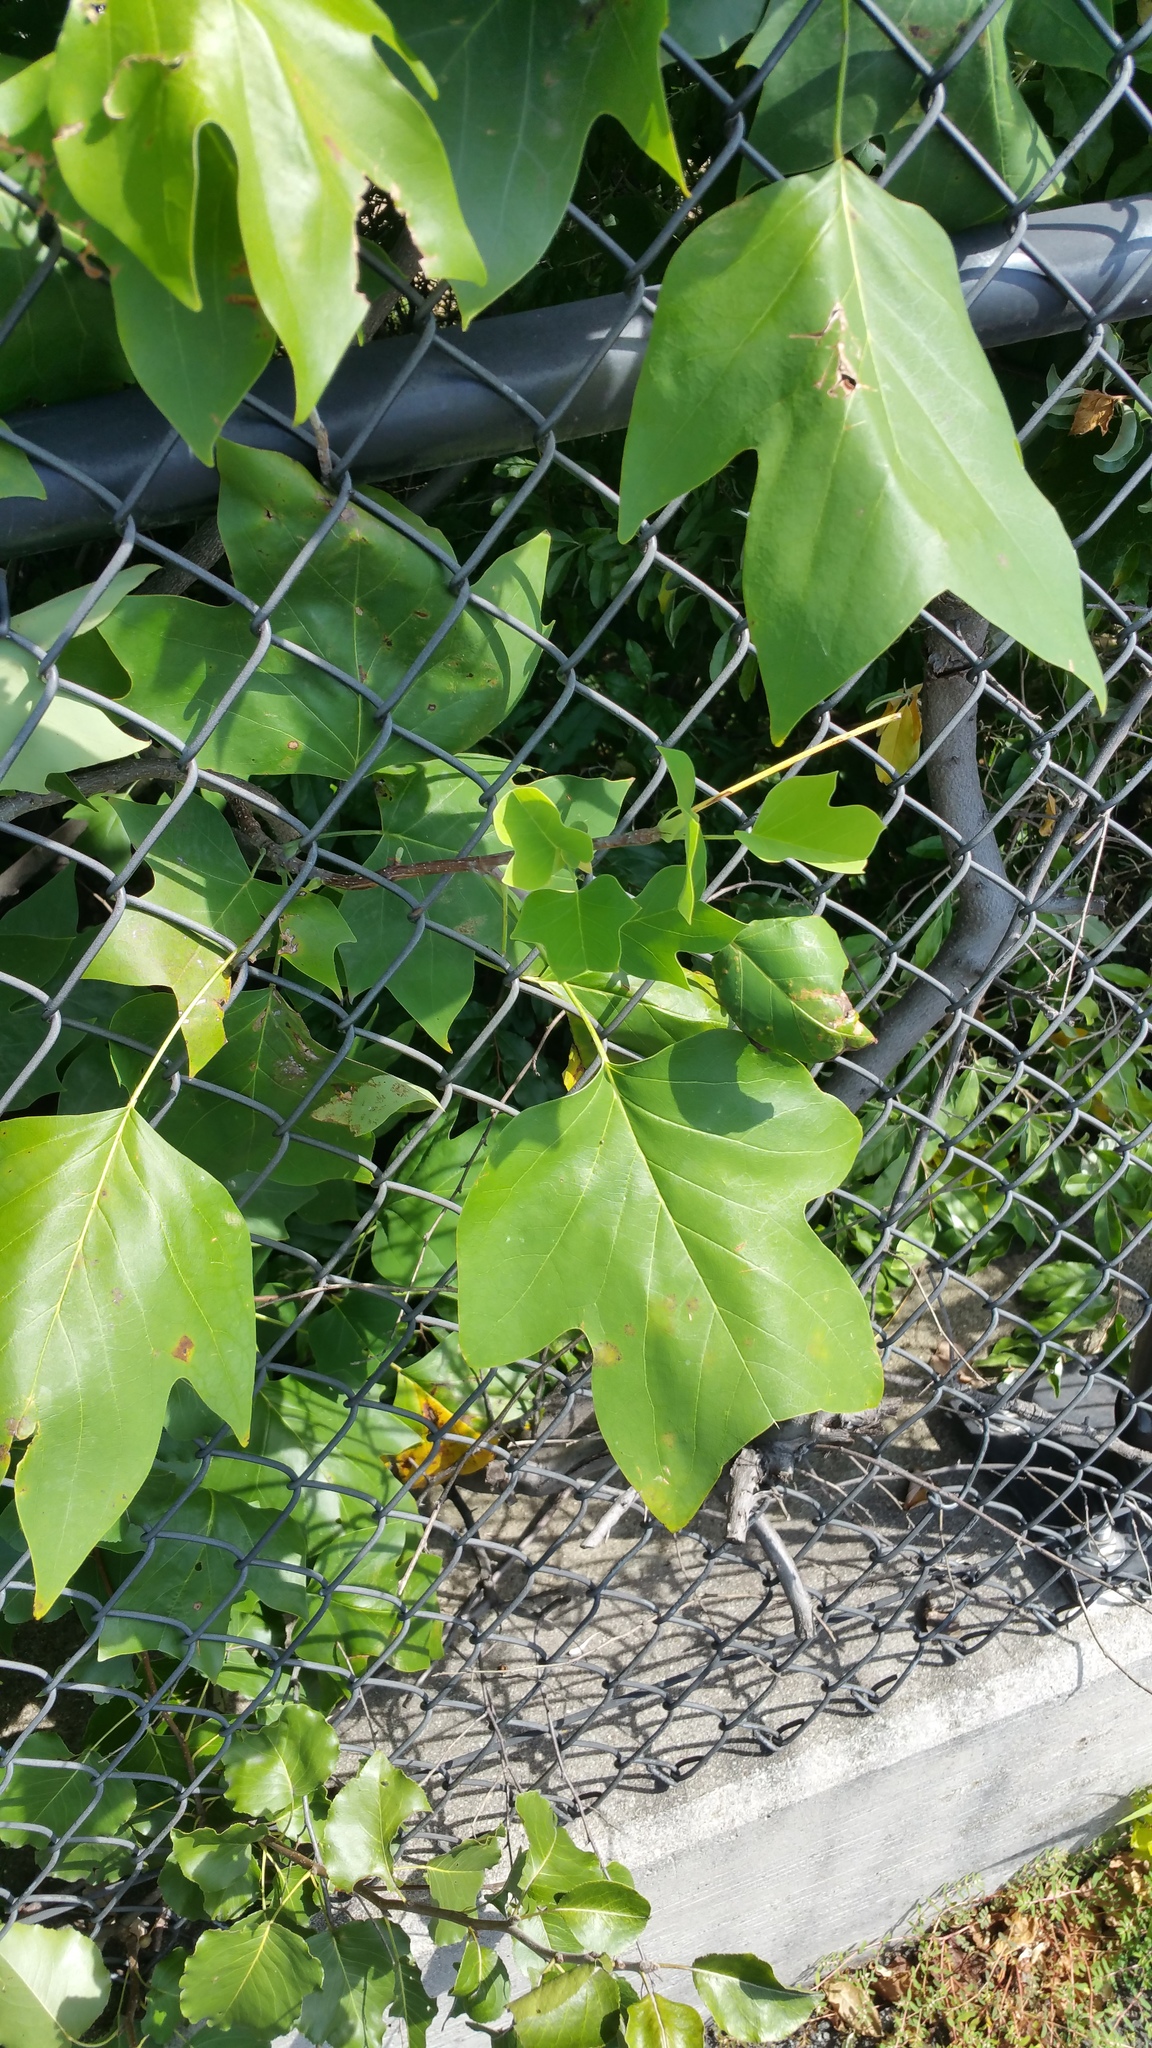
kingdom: Plantae
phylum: Tracheophyta
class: Magnoliopsida
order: Magnoliales
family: Magnoliaceae
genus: Liriodendron
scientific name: Liriodendron tulipifera
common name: Tulip tree
